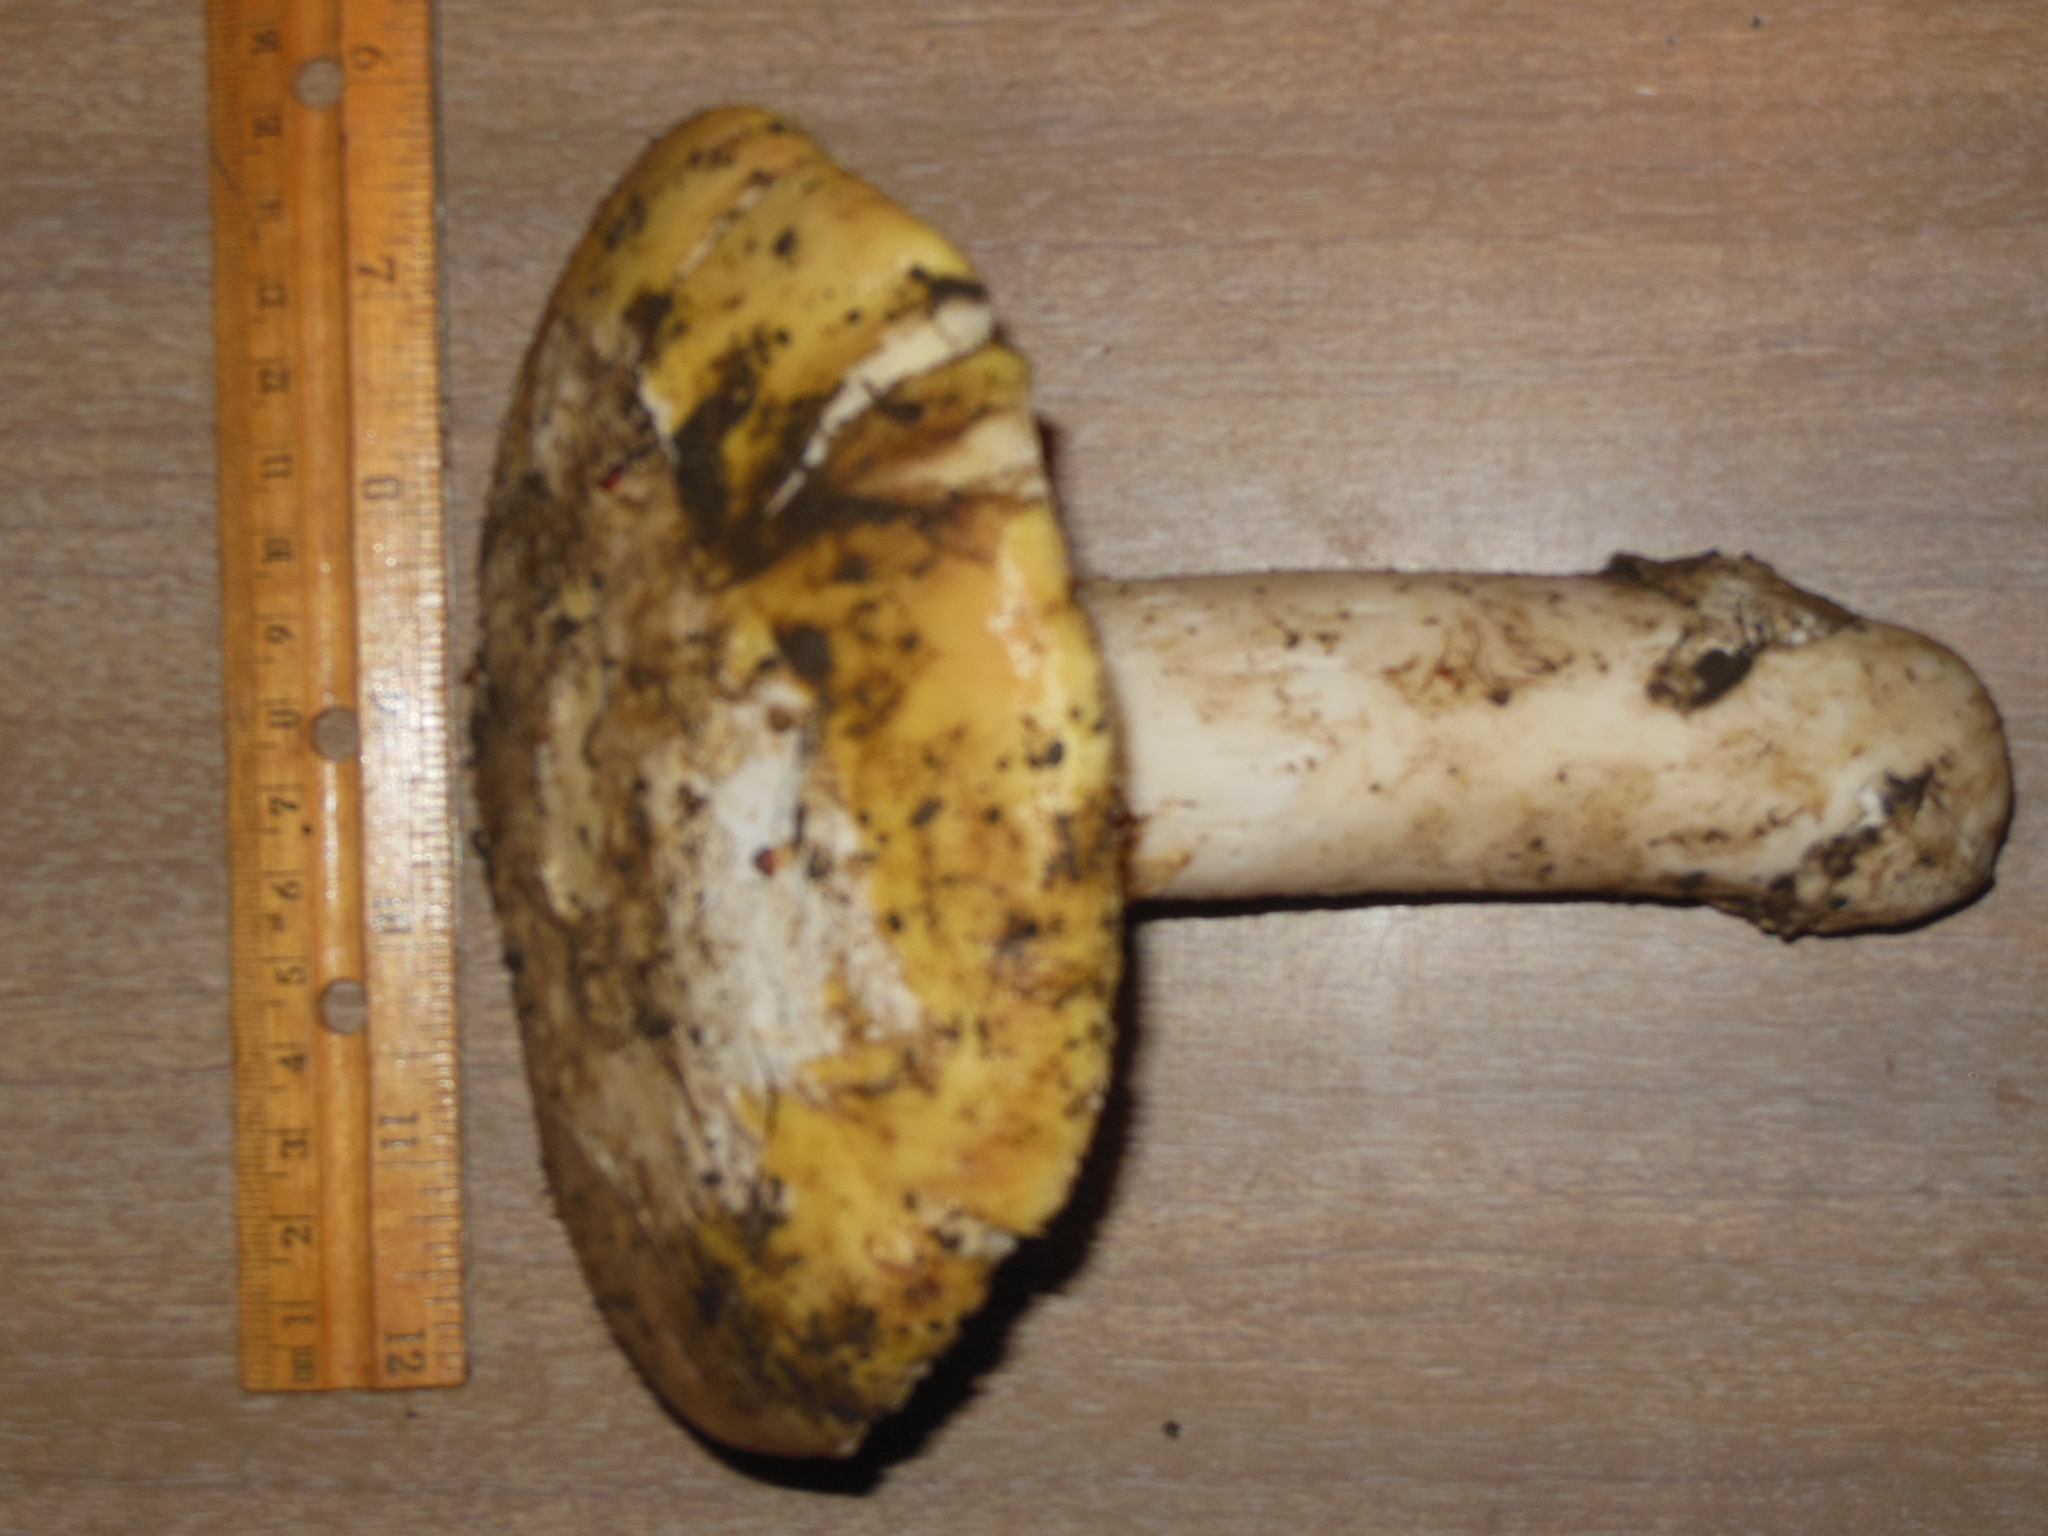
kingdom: Fungi
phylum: Basidiomycota
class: Agaricomycetes
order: Agaricales
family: Amanitaceae
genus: Amanita
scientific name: Amanita vernicoccora
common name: Spring coccora
